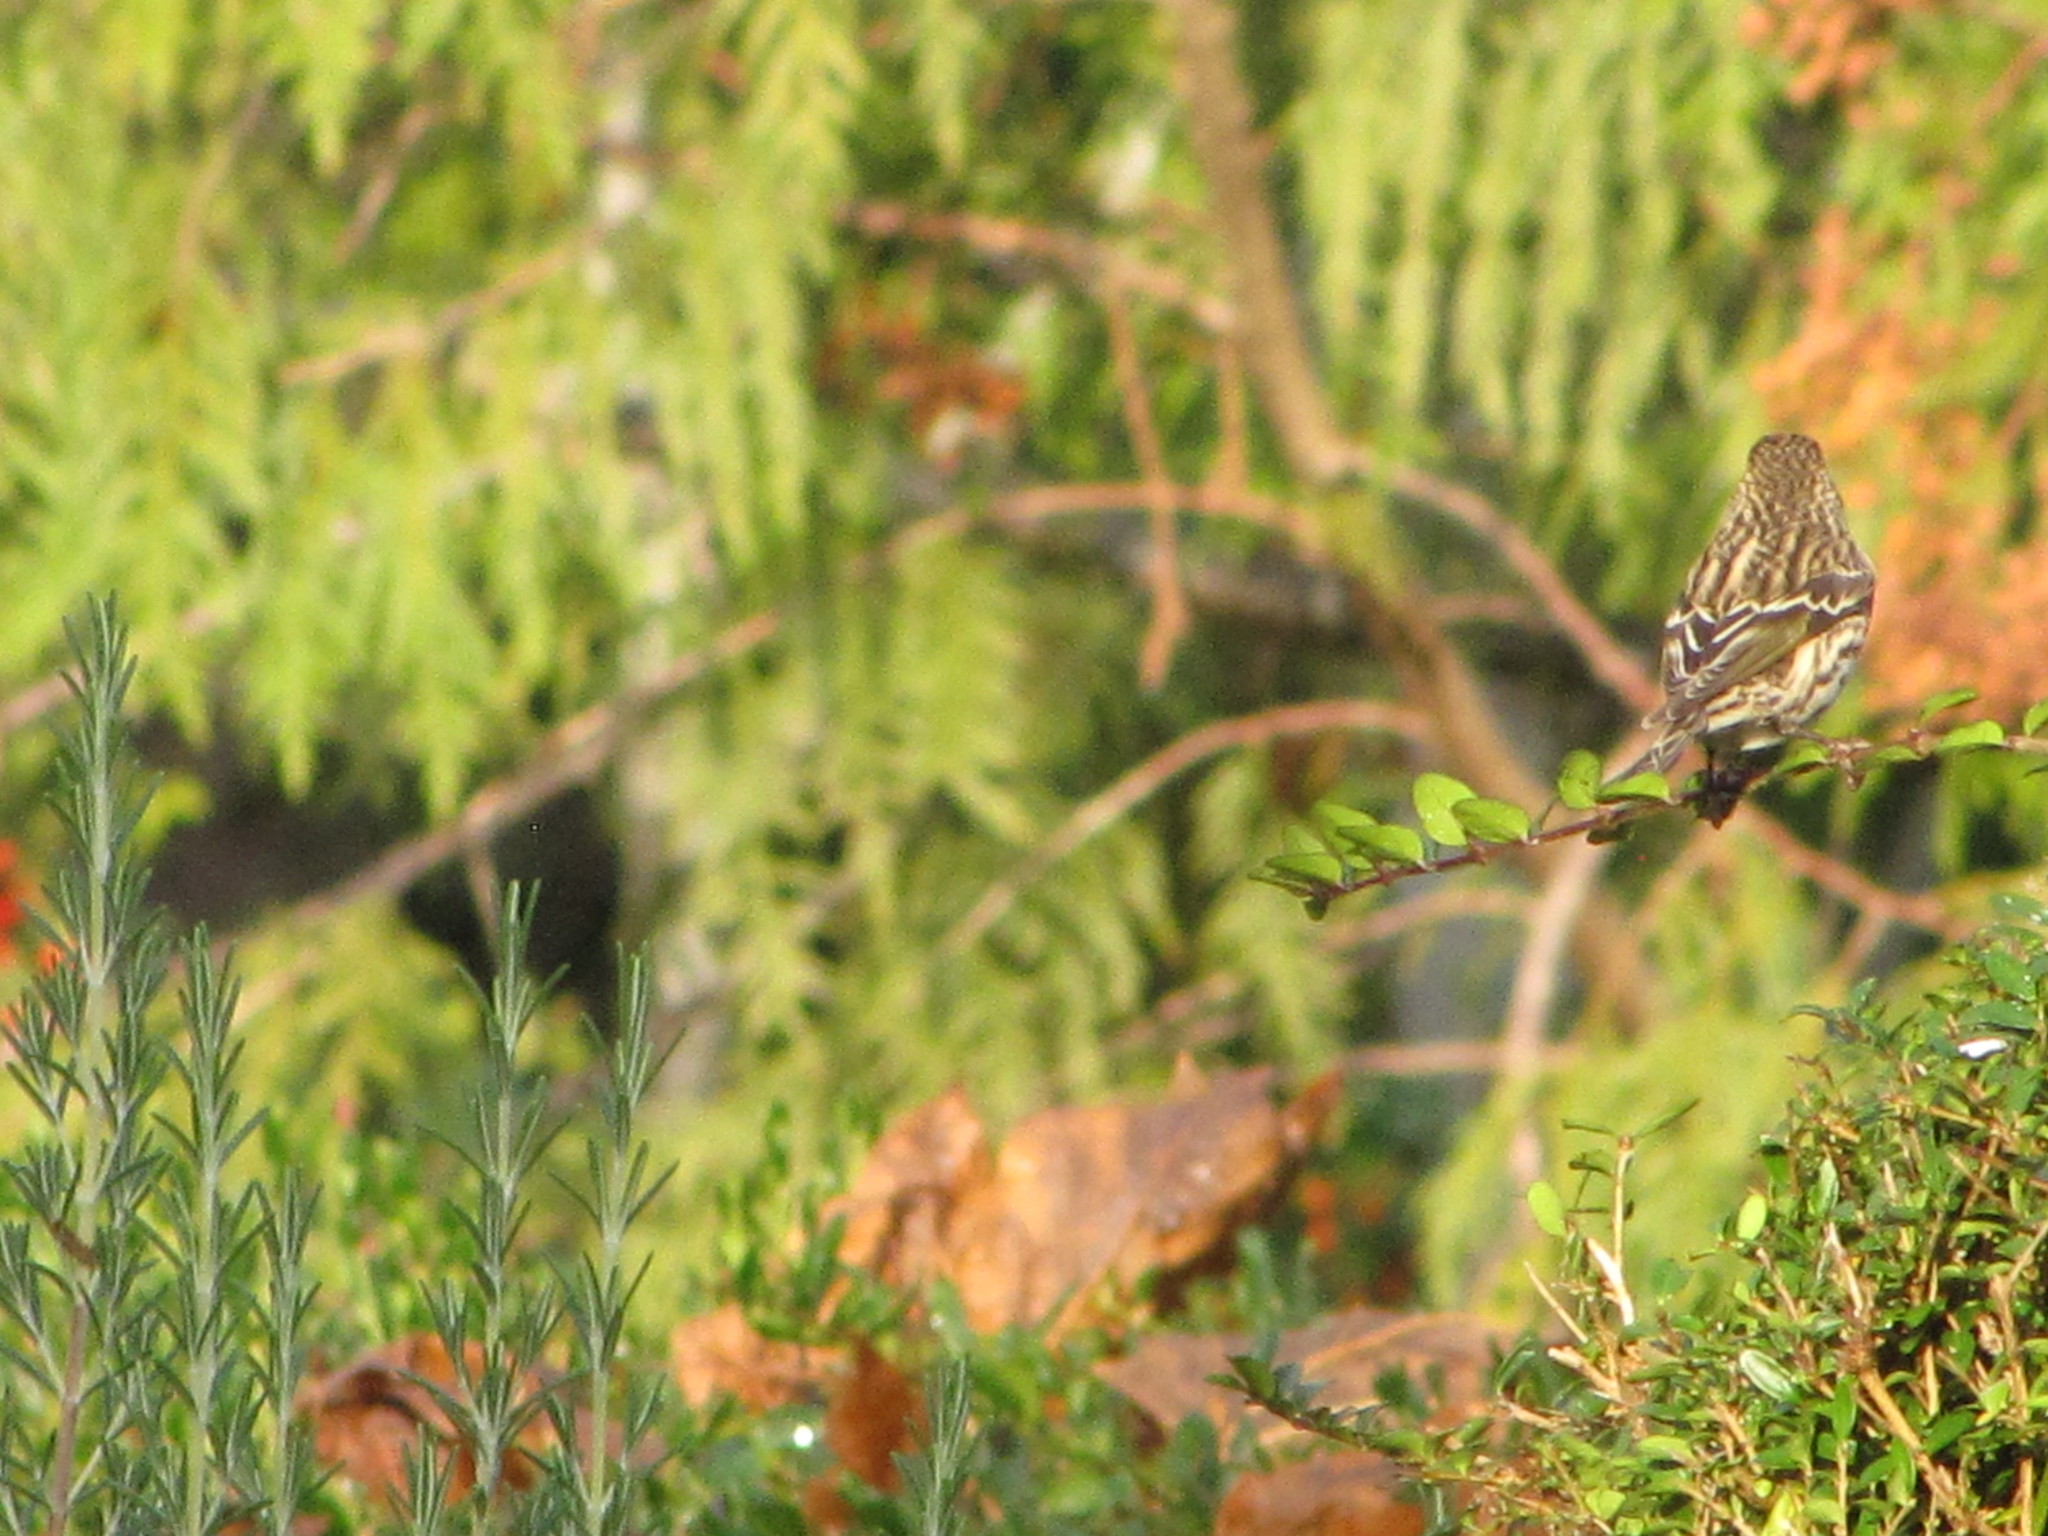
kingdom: Animalia
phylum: Chordata
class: Aves
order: Passeriformes
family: Fringillidae
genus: Spinus
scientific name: Spinus pinus
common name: Pine siskin
